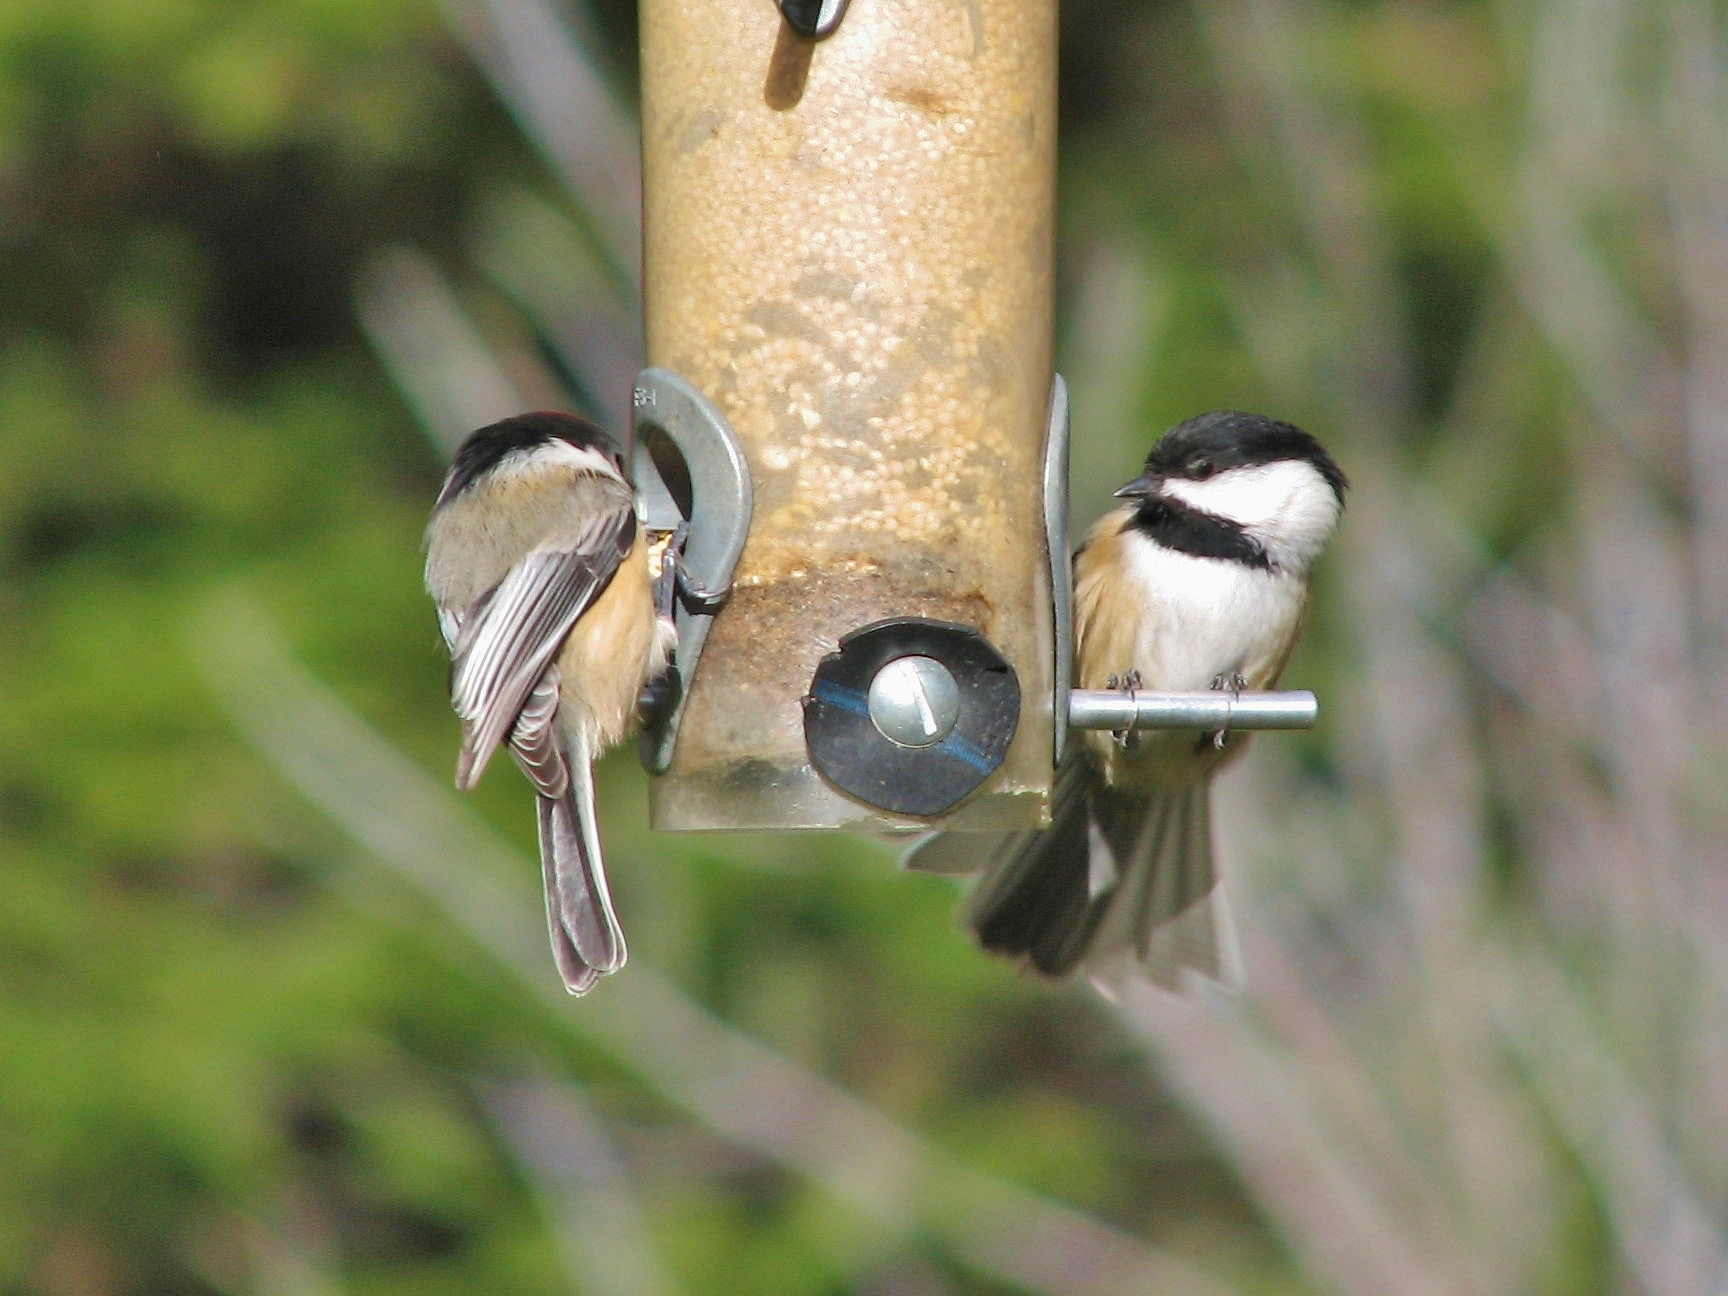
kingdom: Animalia
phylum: Chordata
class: Aves
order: Passeriformes
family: Paridae
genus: Poecile
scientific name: Poecile atricapillus
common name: Black-capped chickadee
